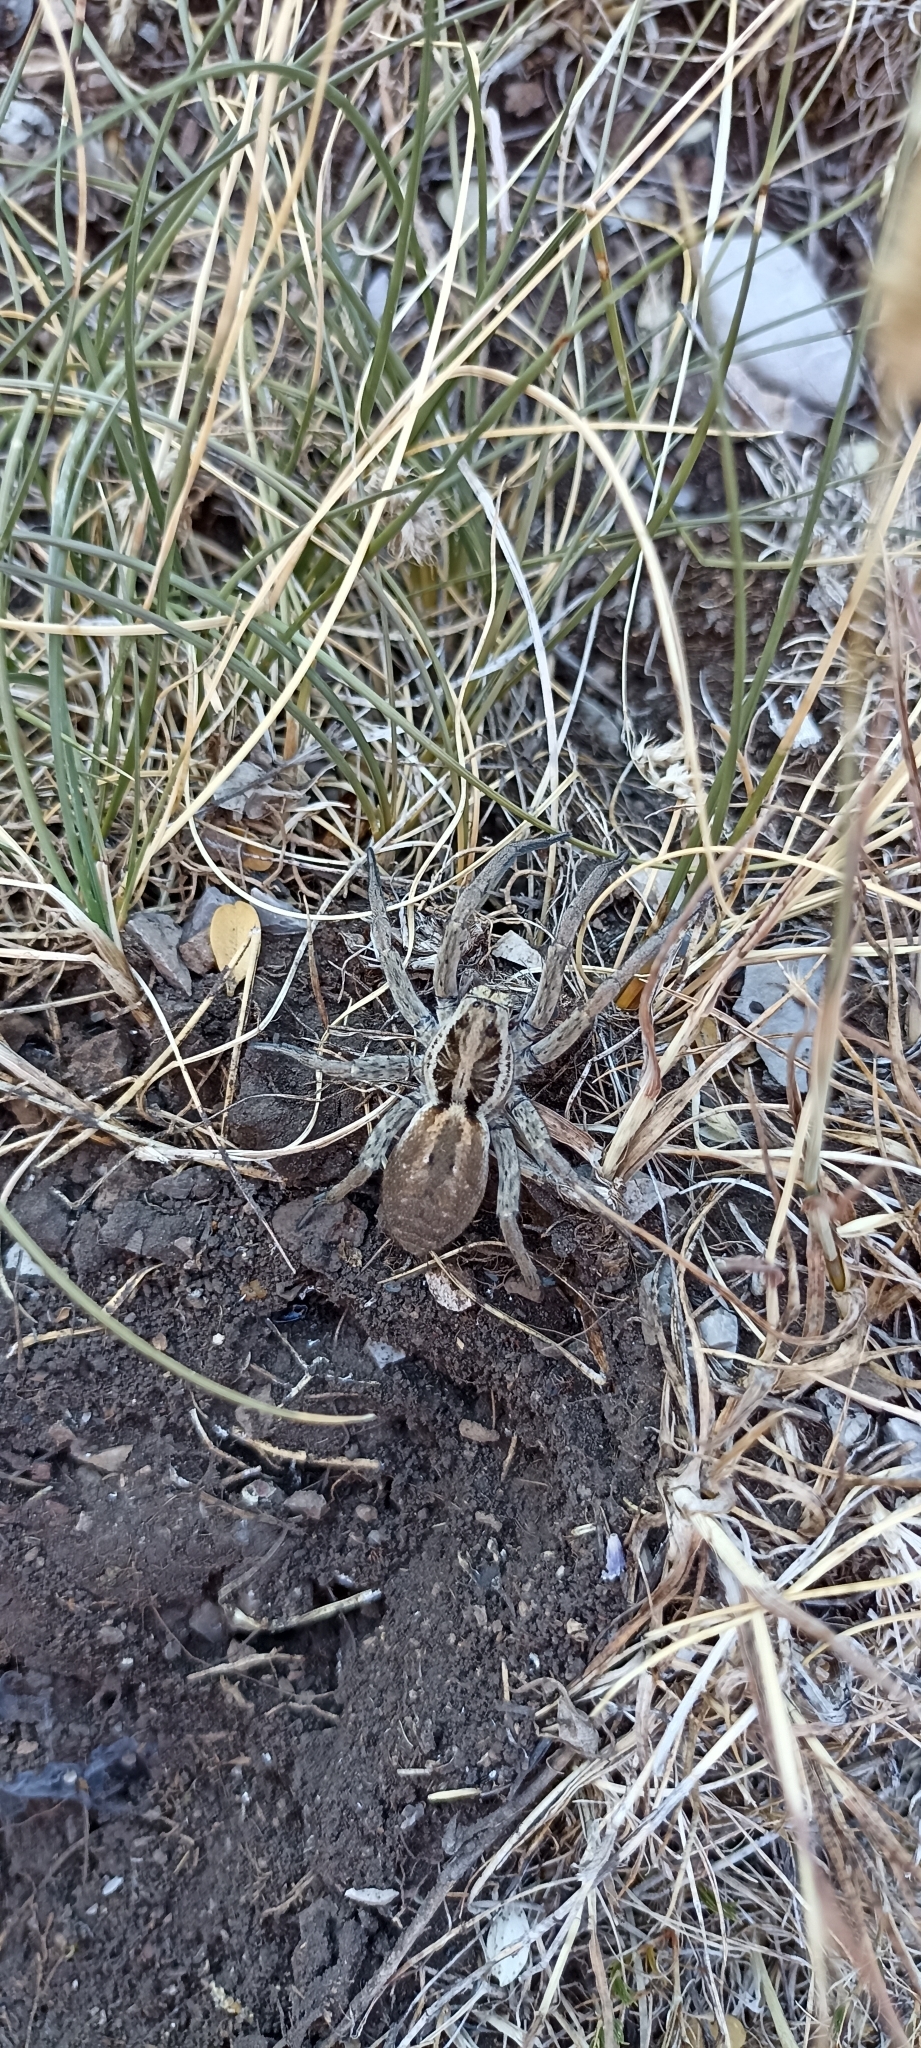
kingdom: Animalia
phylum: Arthropoda
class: Arachnida
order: Araneae
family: Lycosidae
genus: Hogna
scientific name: Hogna radiata
